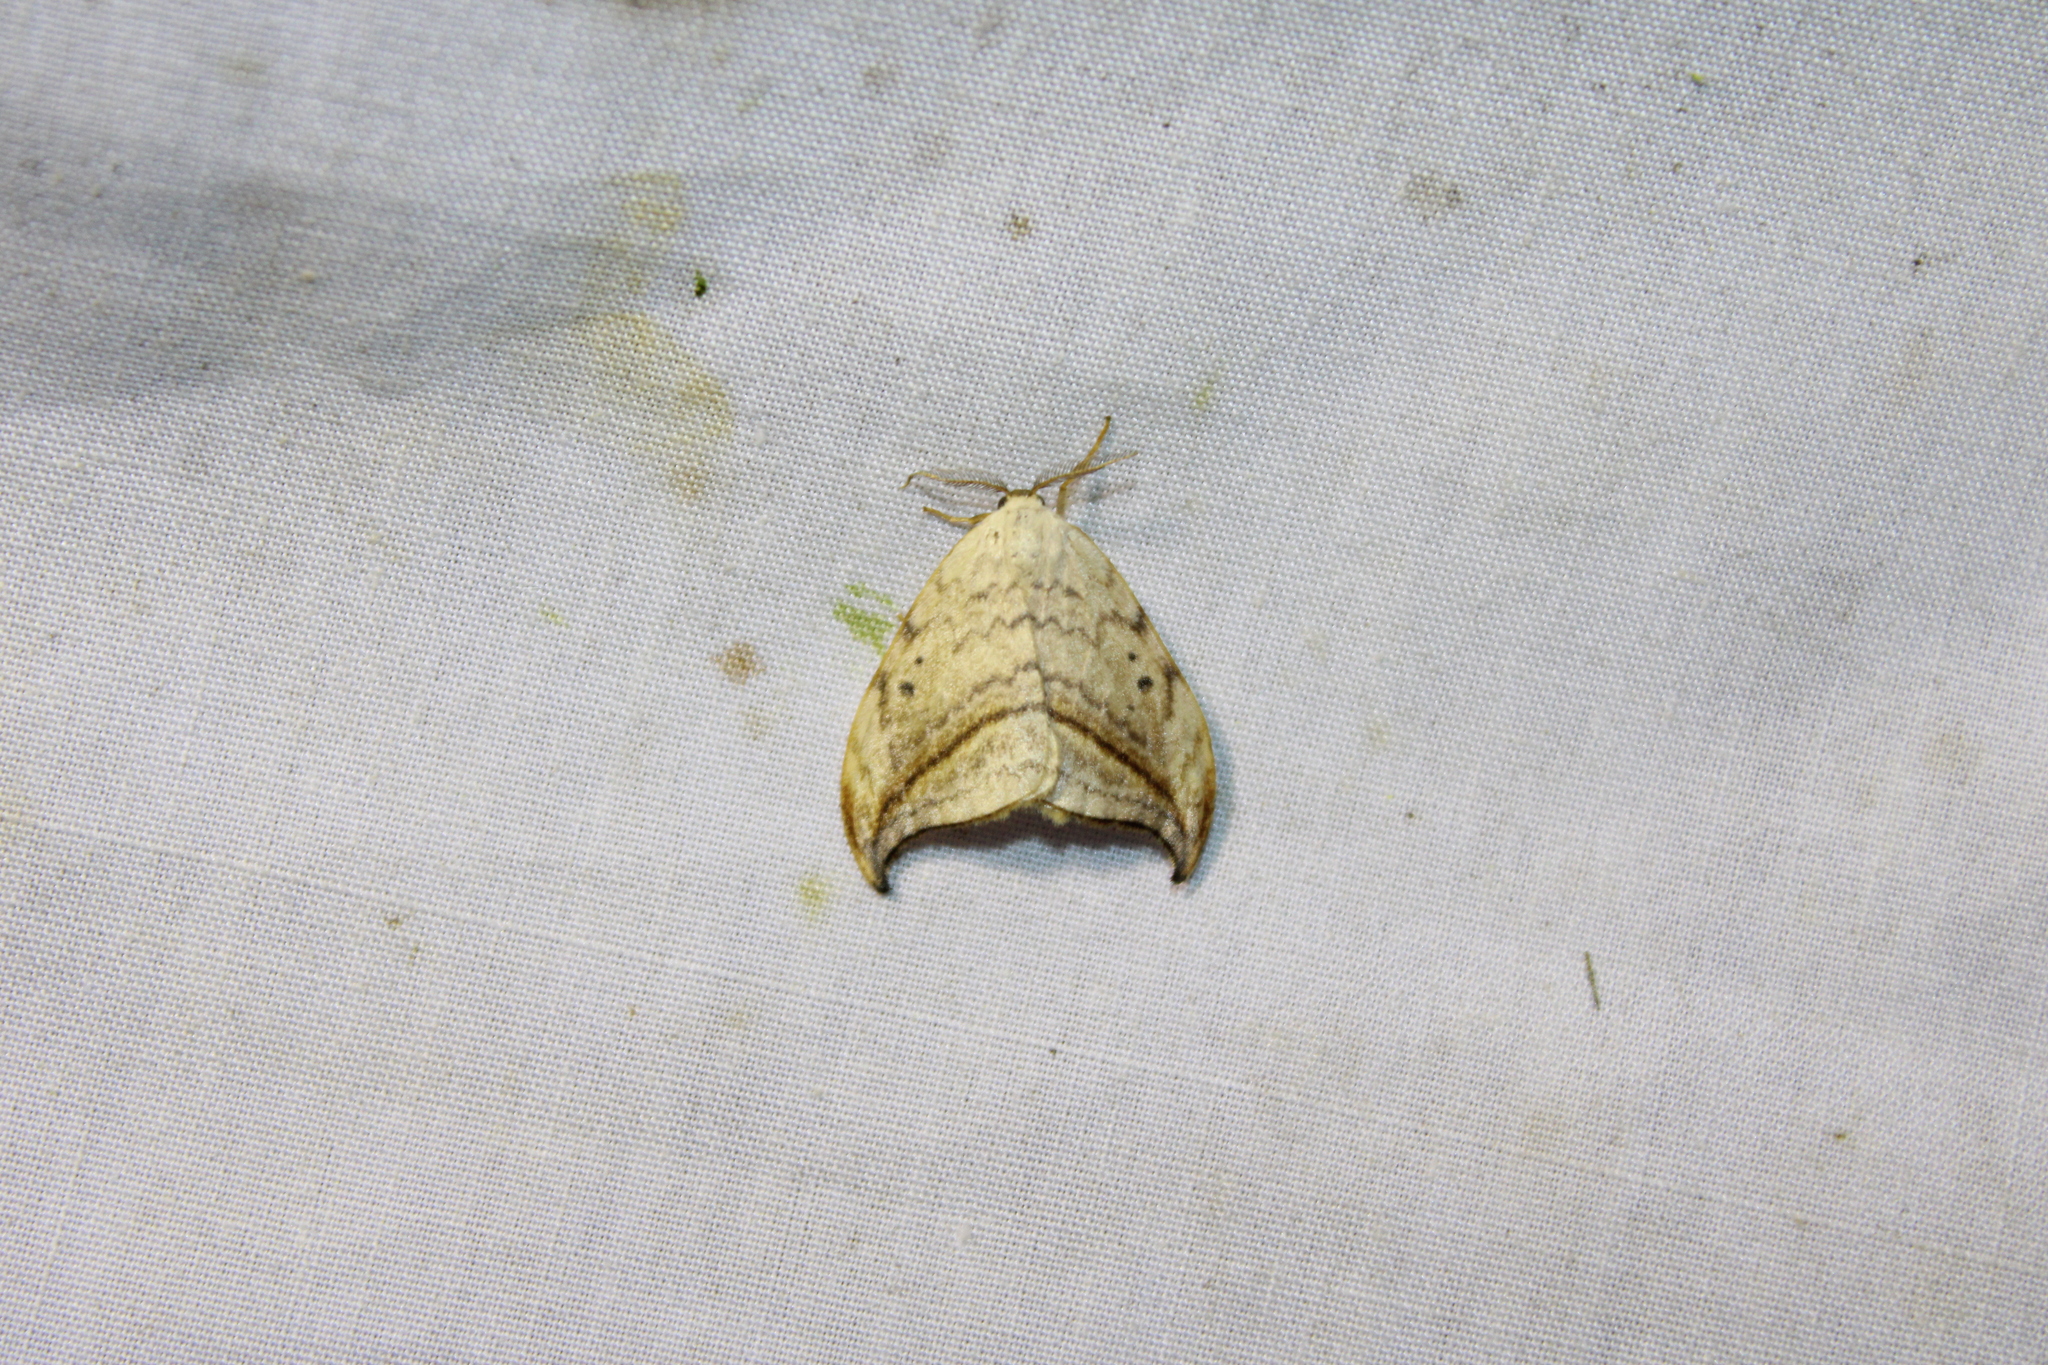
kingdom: Animalia
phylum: Arthropoda
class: Insecta
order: Lepidoptera
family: Drepanidae
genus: Drepana
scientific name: Drepana arcuata
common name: Arched hooktip moth
